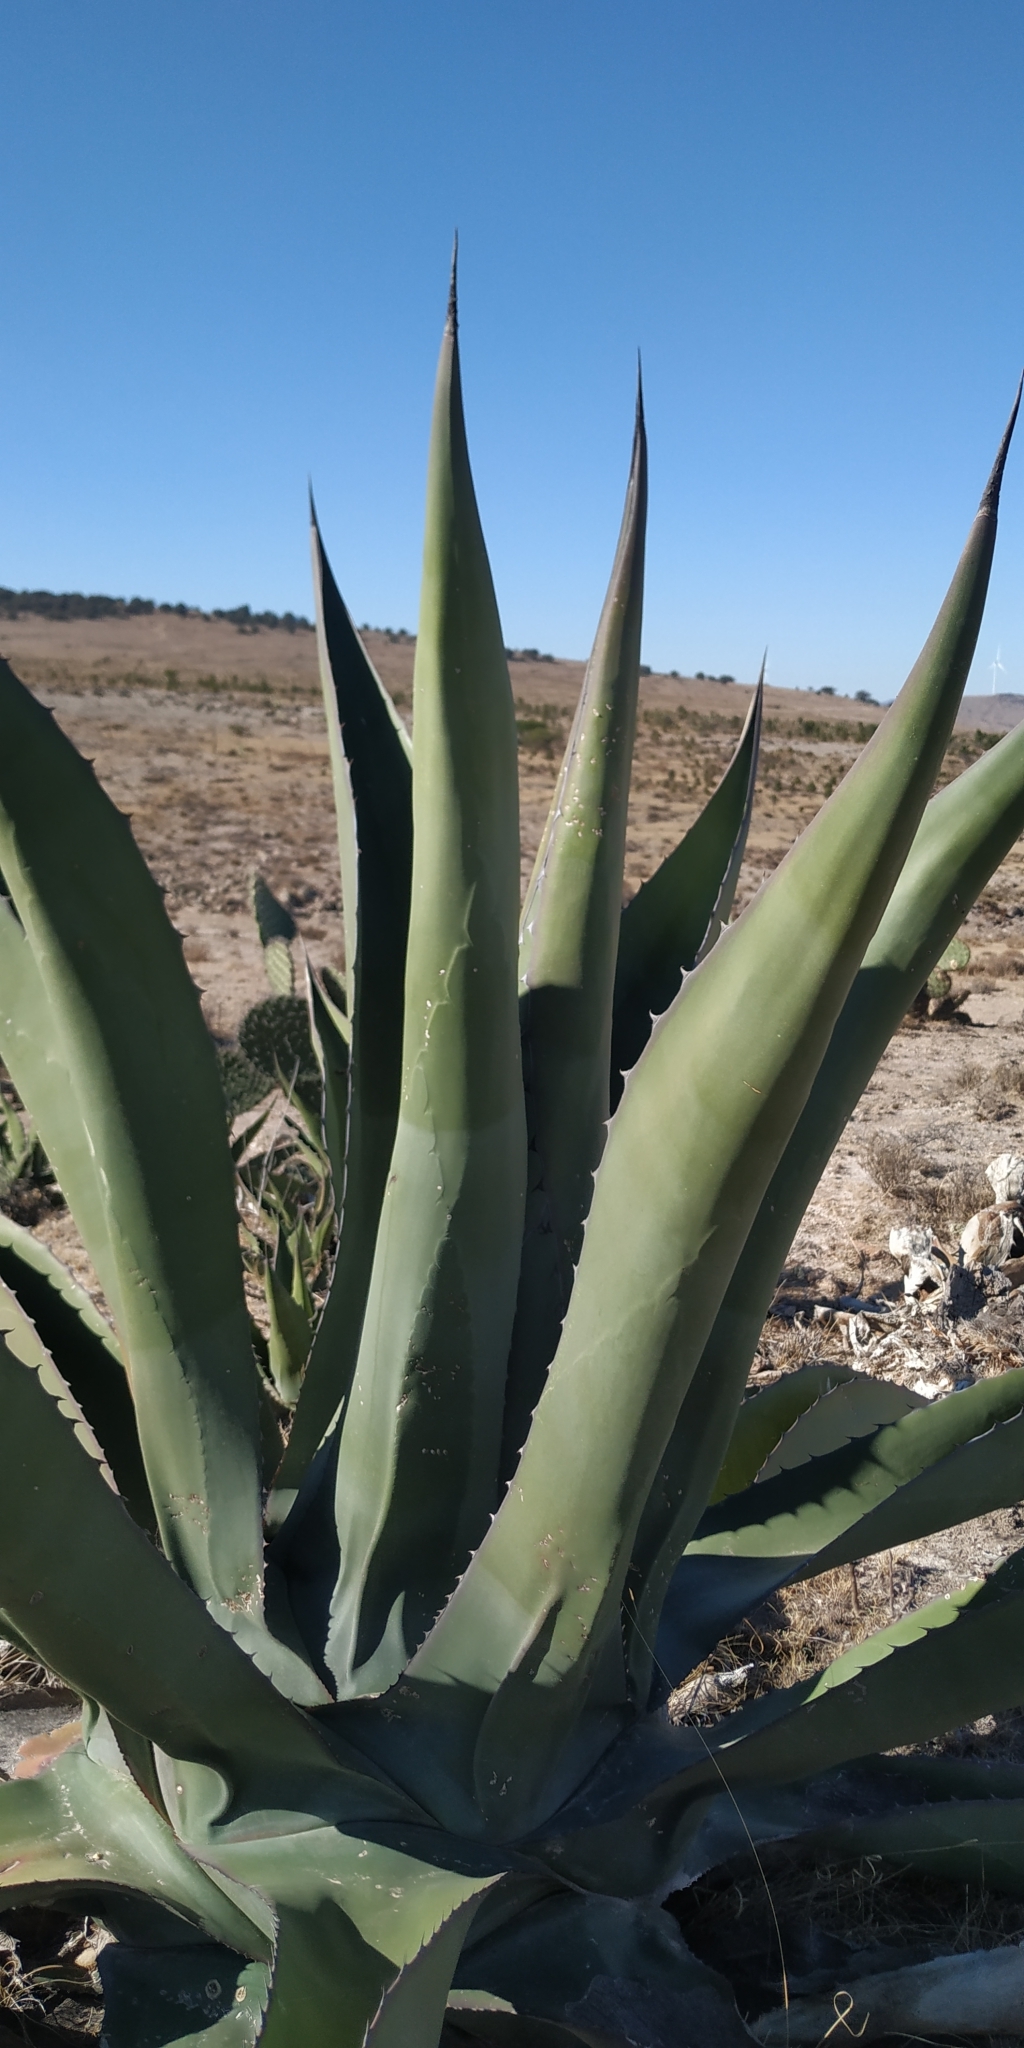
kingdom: Plantae
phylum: Tracheophyta
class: Liliopsida
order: Asparagales
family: Asparagaceae
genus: Agave
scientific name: Agave salmiana
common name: Pulque agave
